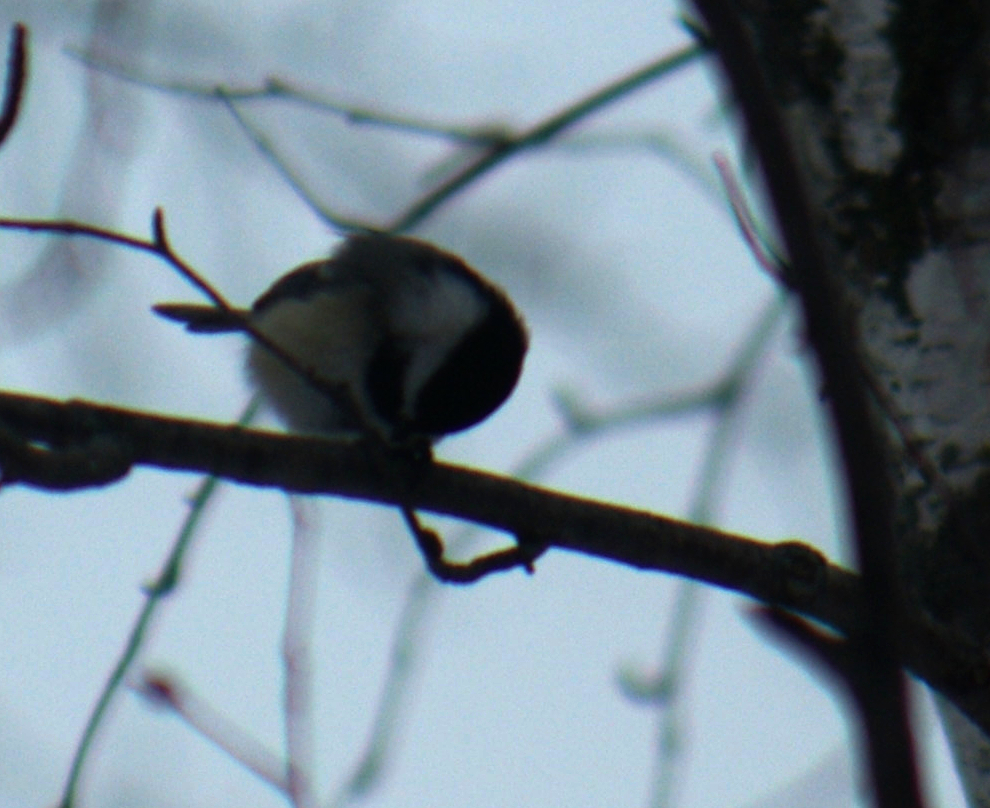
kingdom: Animalia
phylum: Chordata
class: Aves
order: Passeriformes
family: Paridae
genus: Poecile
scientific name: Poecile atricapillus
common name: Black-capped chickadee
